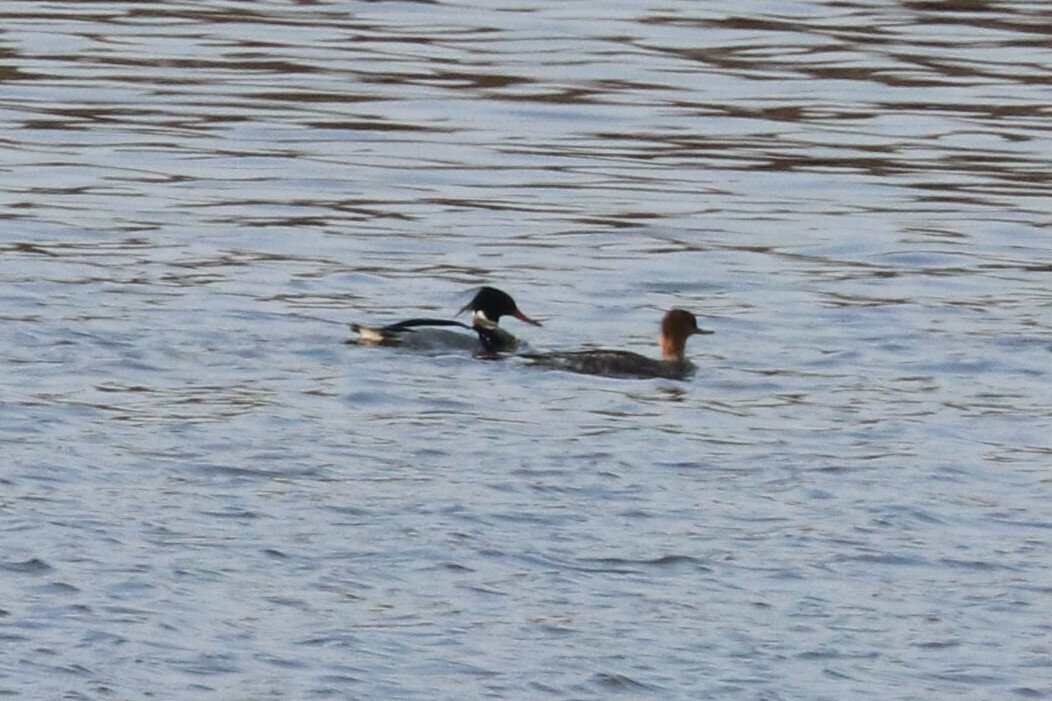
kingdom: Animalia
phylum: Chordata
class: Aves
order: Anseriformes
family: Anatidae
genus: Mergus
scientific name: Mergus serrator
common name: Red-breasted merganser
